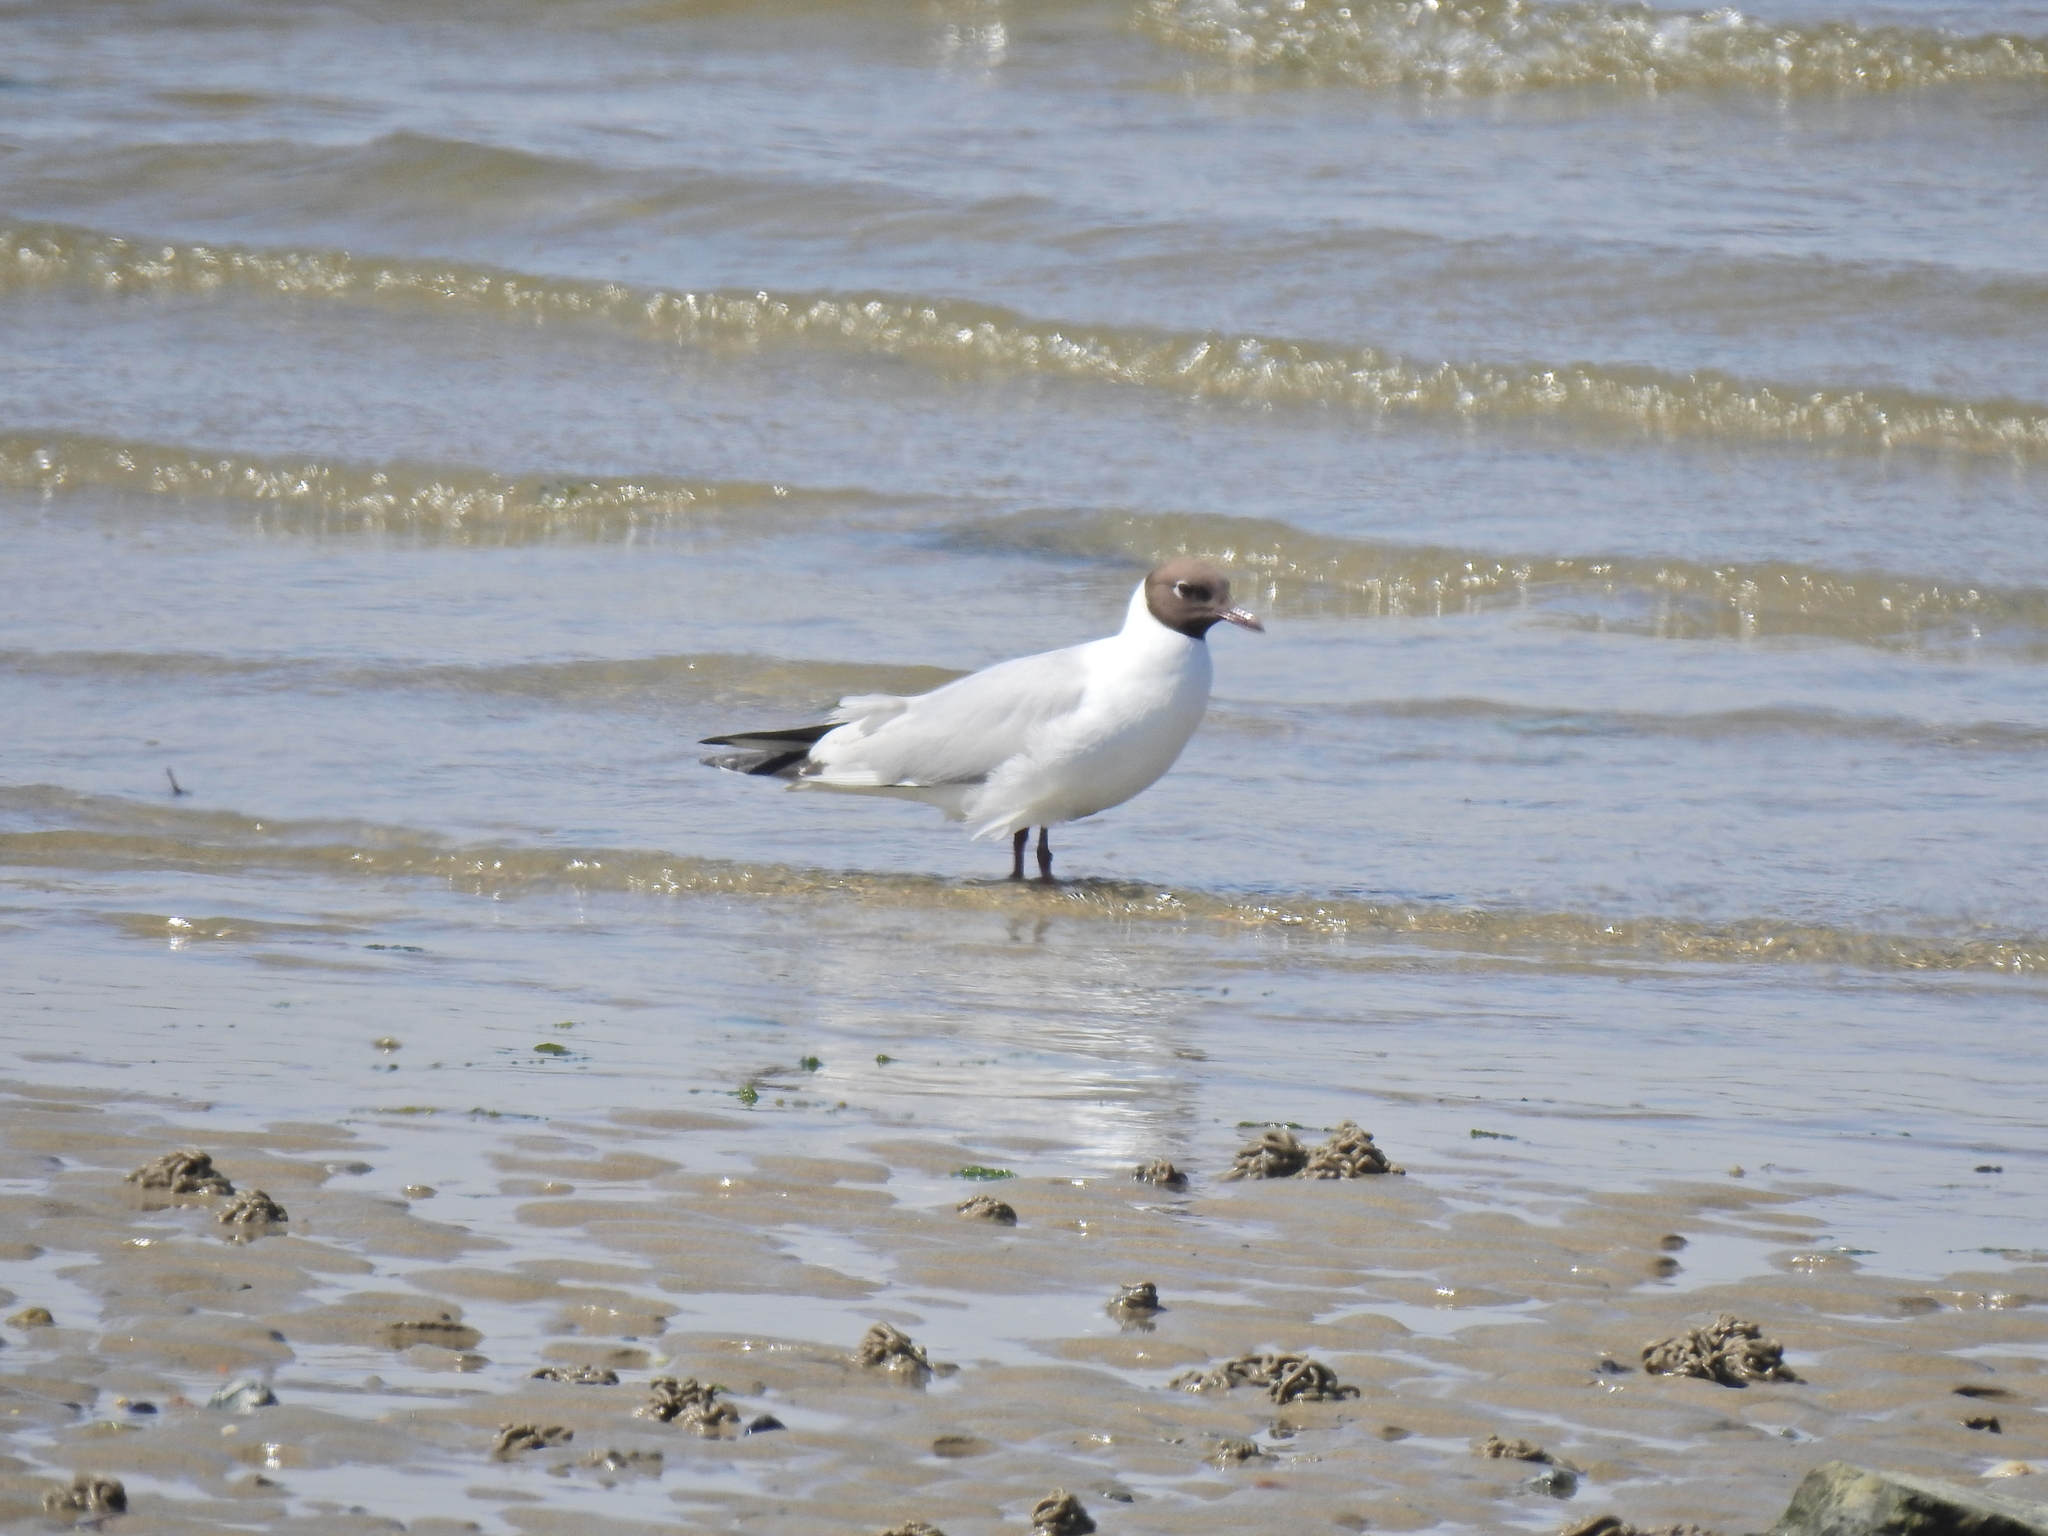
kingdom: Animalia
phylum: Chordata
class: Aves
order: Charadriiformes
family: Laridae
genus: Chroicocephalus
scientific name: Chroicocephalus ridibundus
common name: Black-headed gull
